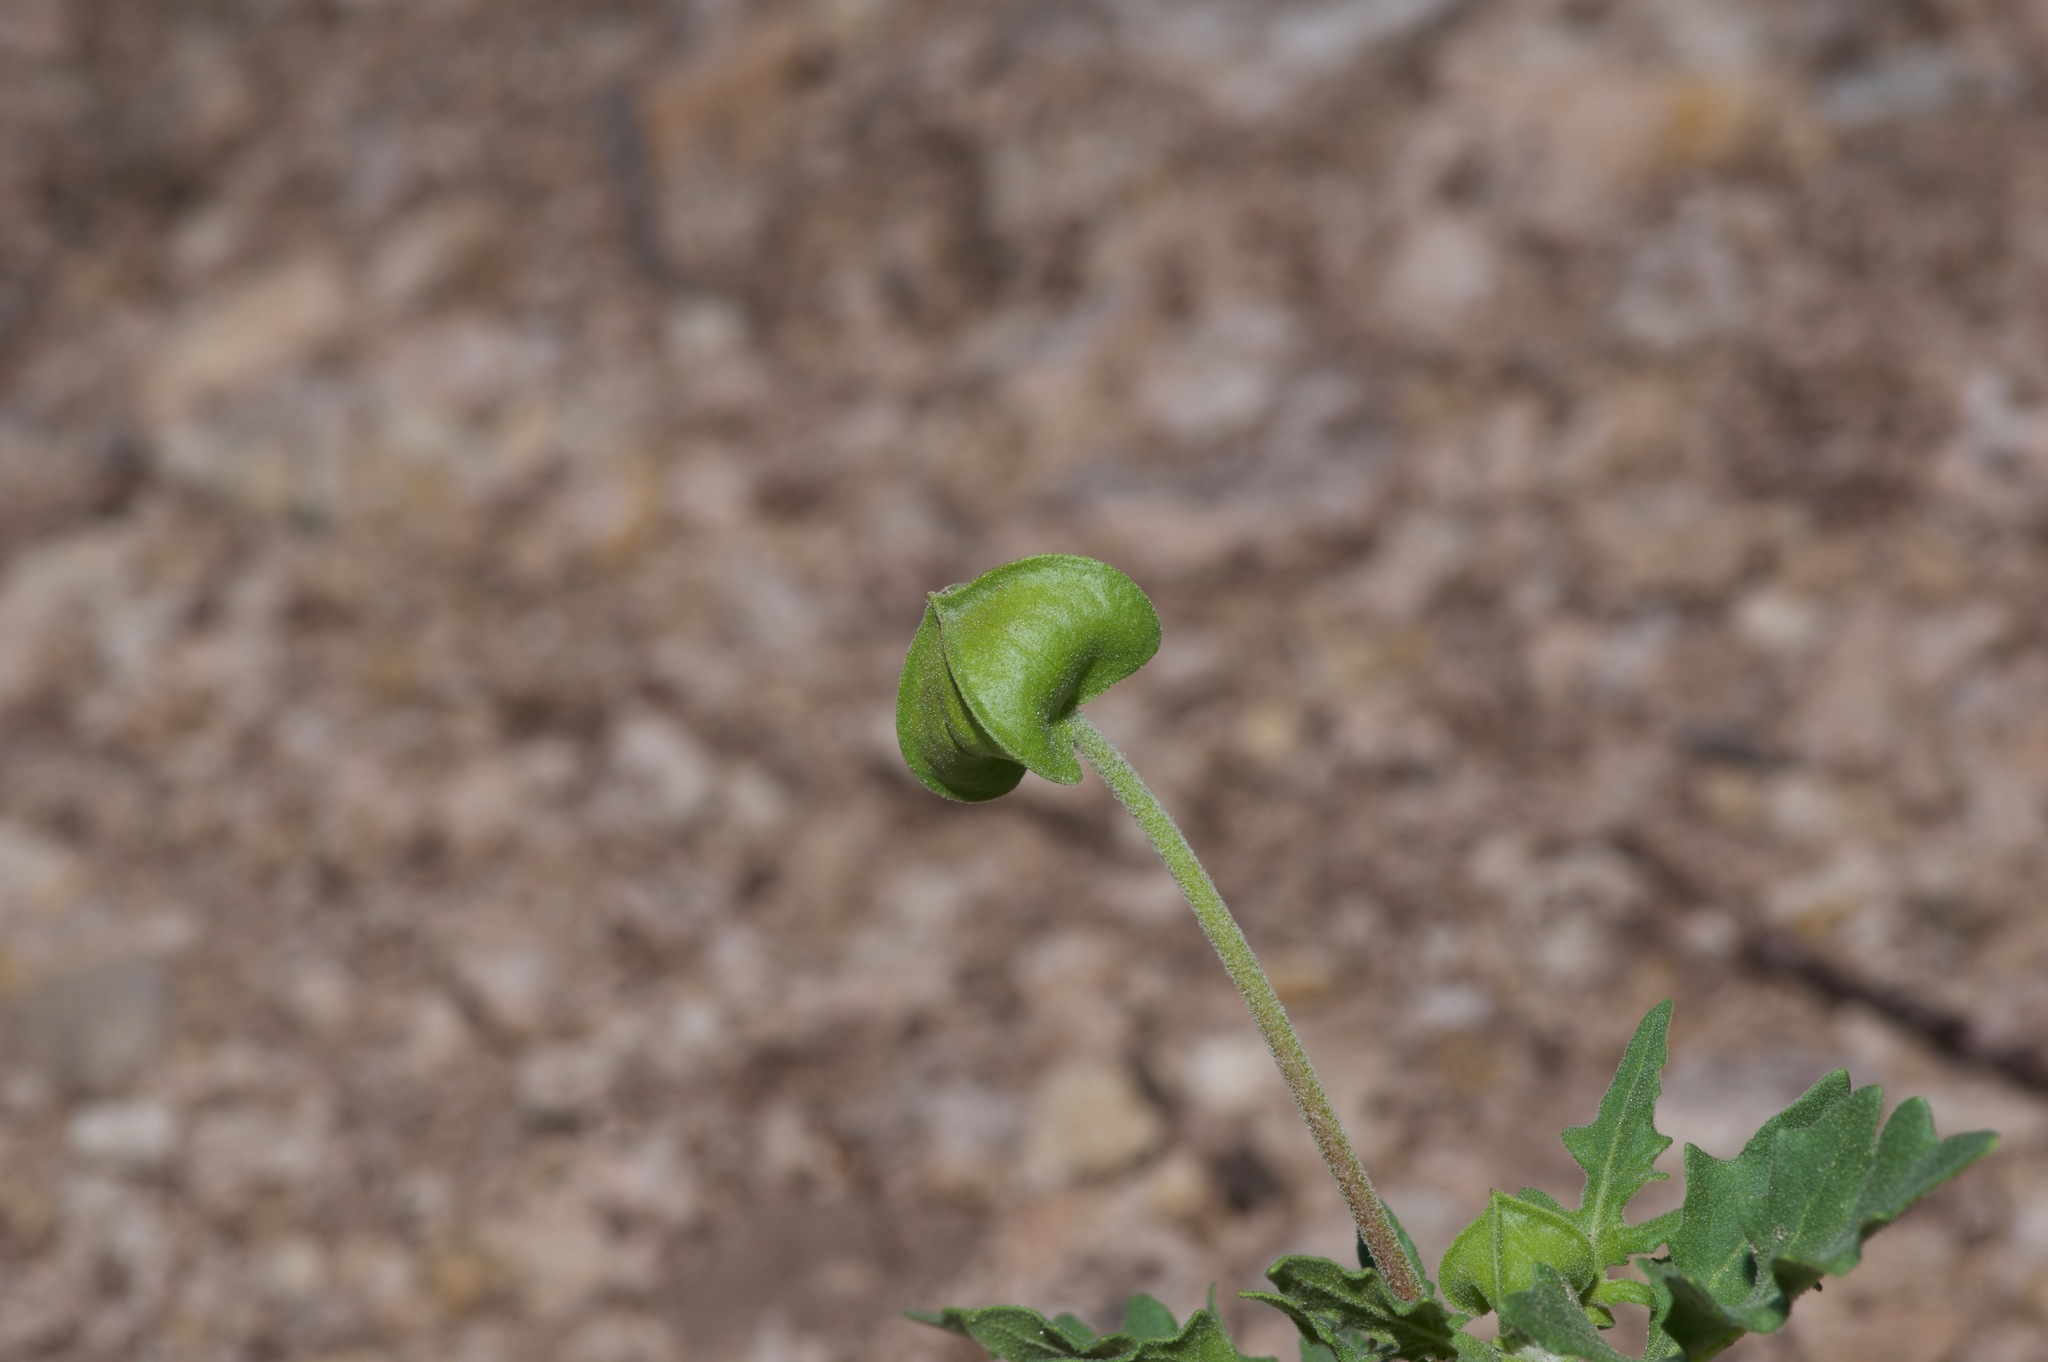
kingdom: Plantae
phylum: Tracheophyta
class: Magnoliopsida
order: Asterales
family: Asteraceae
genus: Tetragonotheca
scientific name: Tetragonotheca texana
